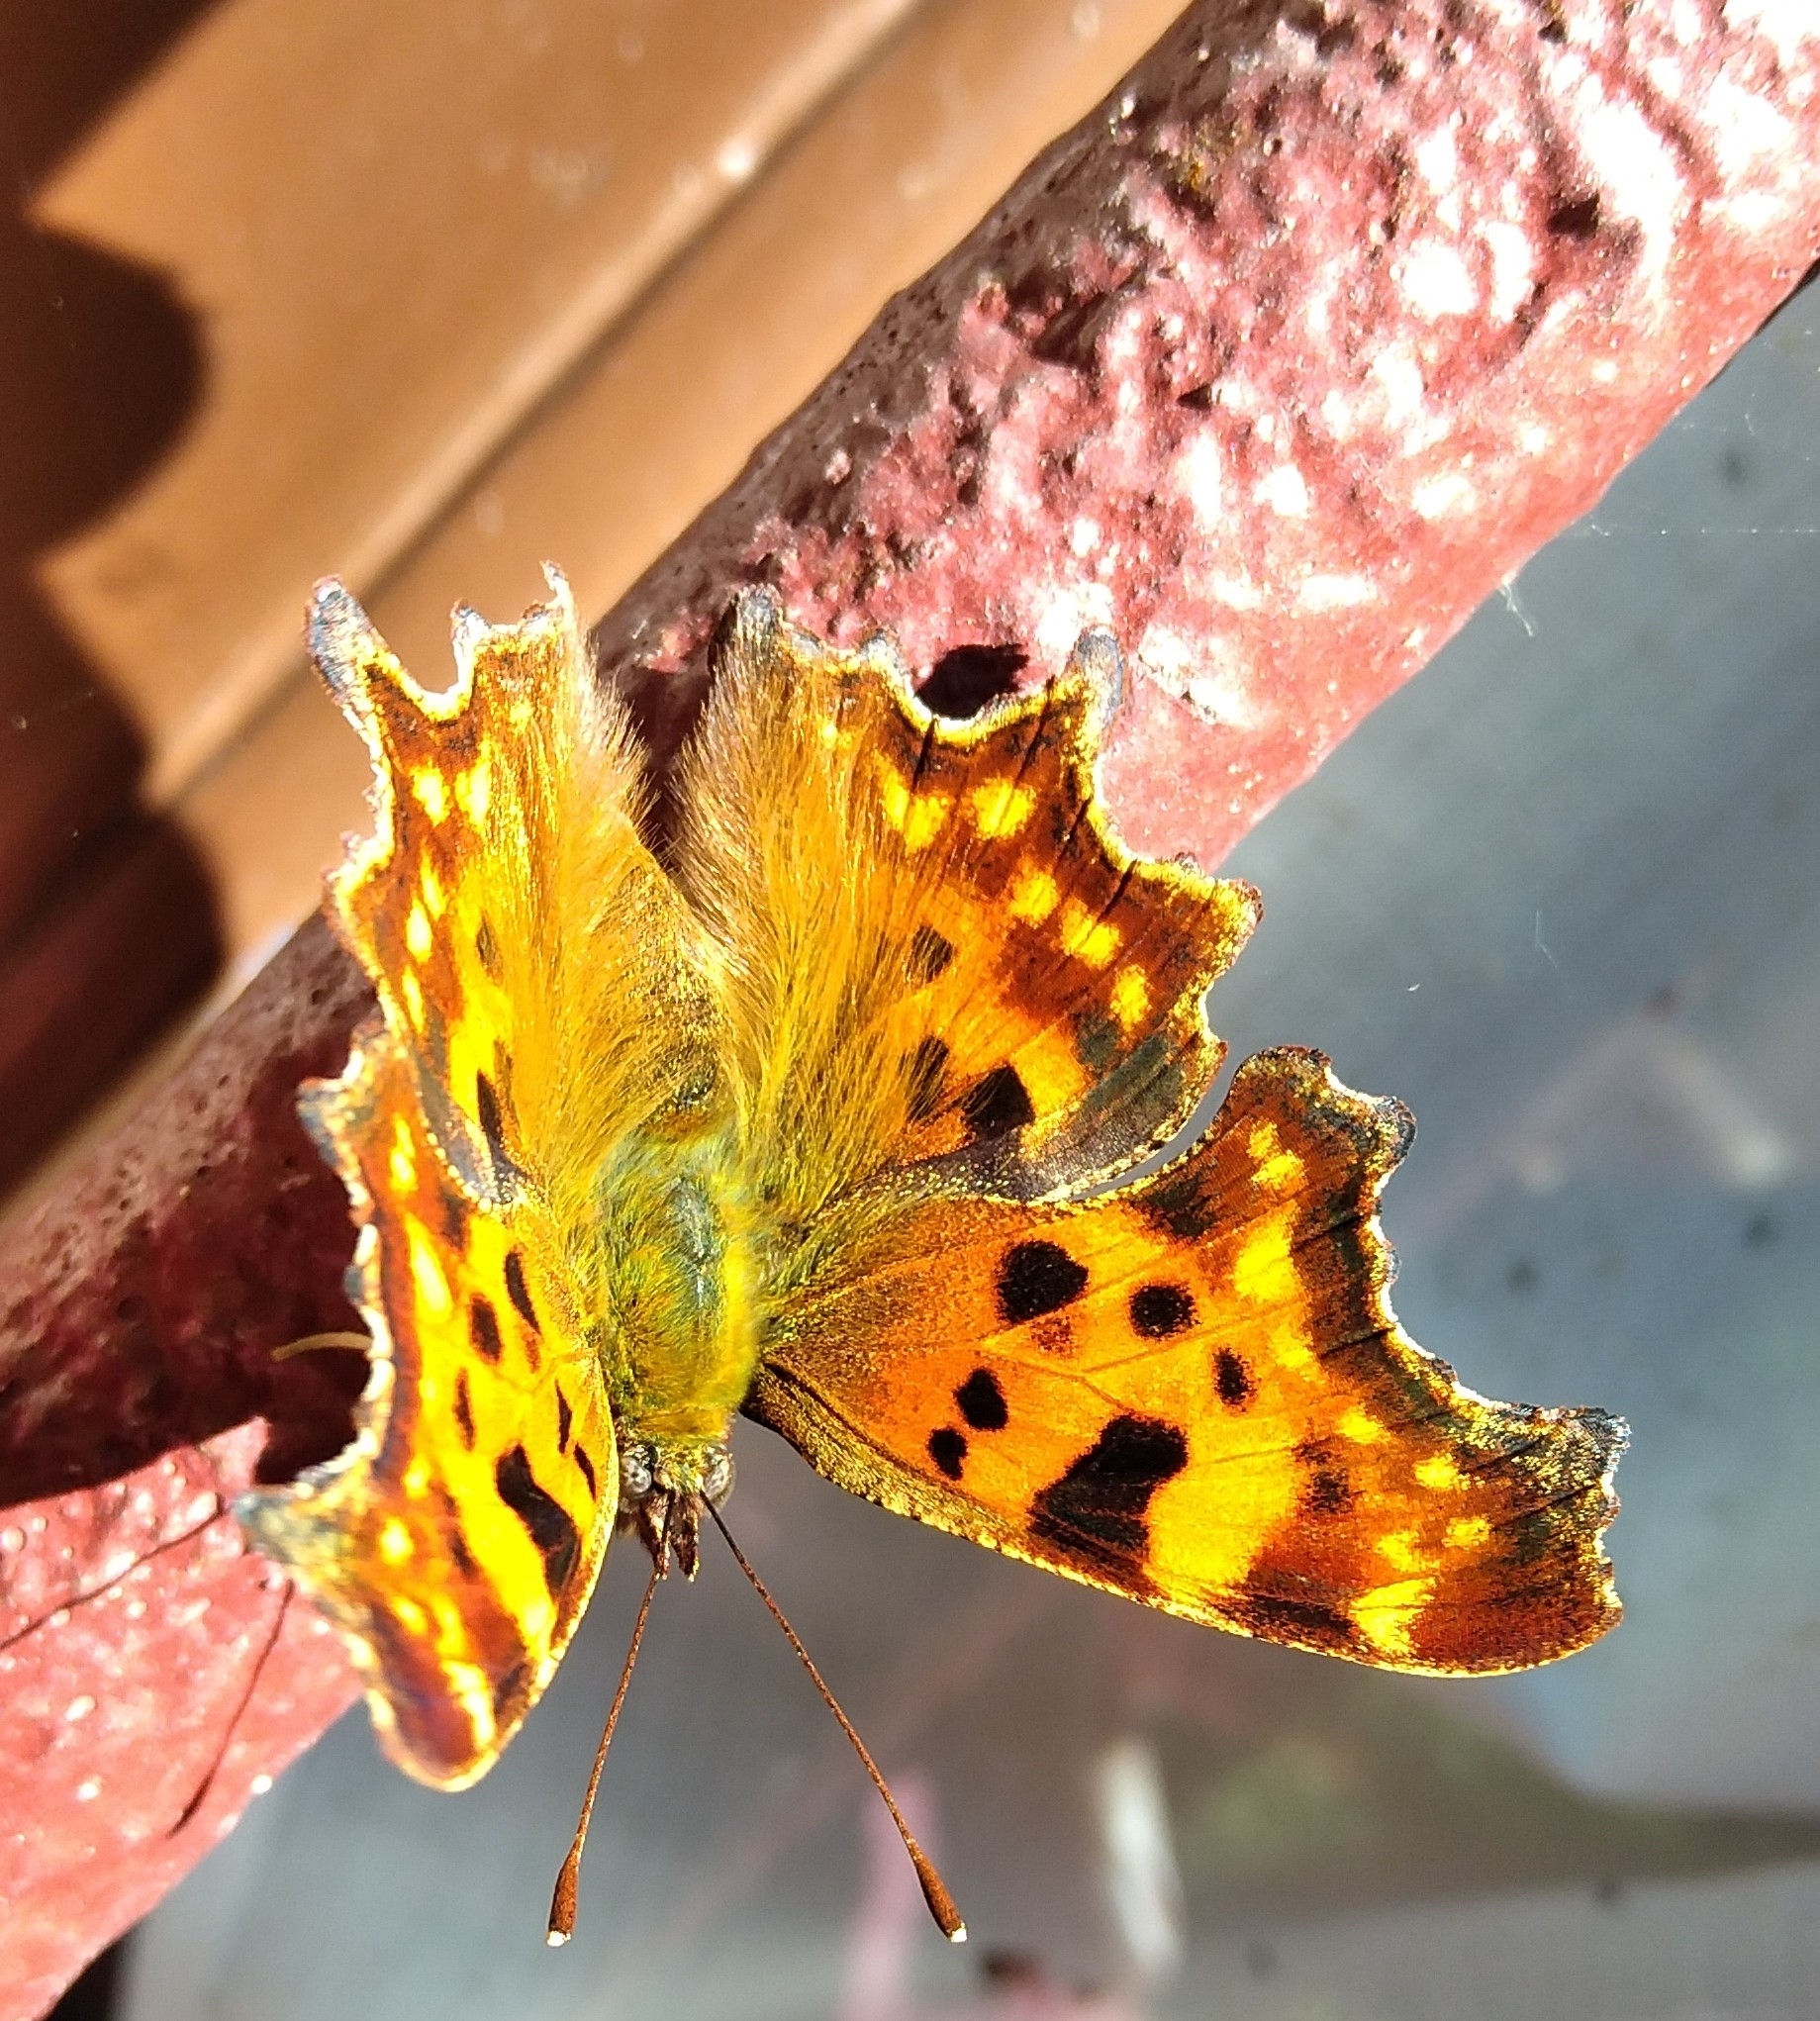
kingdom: Animalia
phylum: Arthropoda
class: Insecta
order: Lepidoptera
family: Nymphalidae
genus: Polygonia
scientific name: Polygonia c-album
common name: Comma
